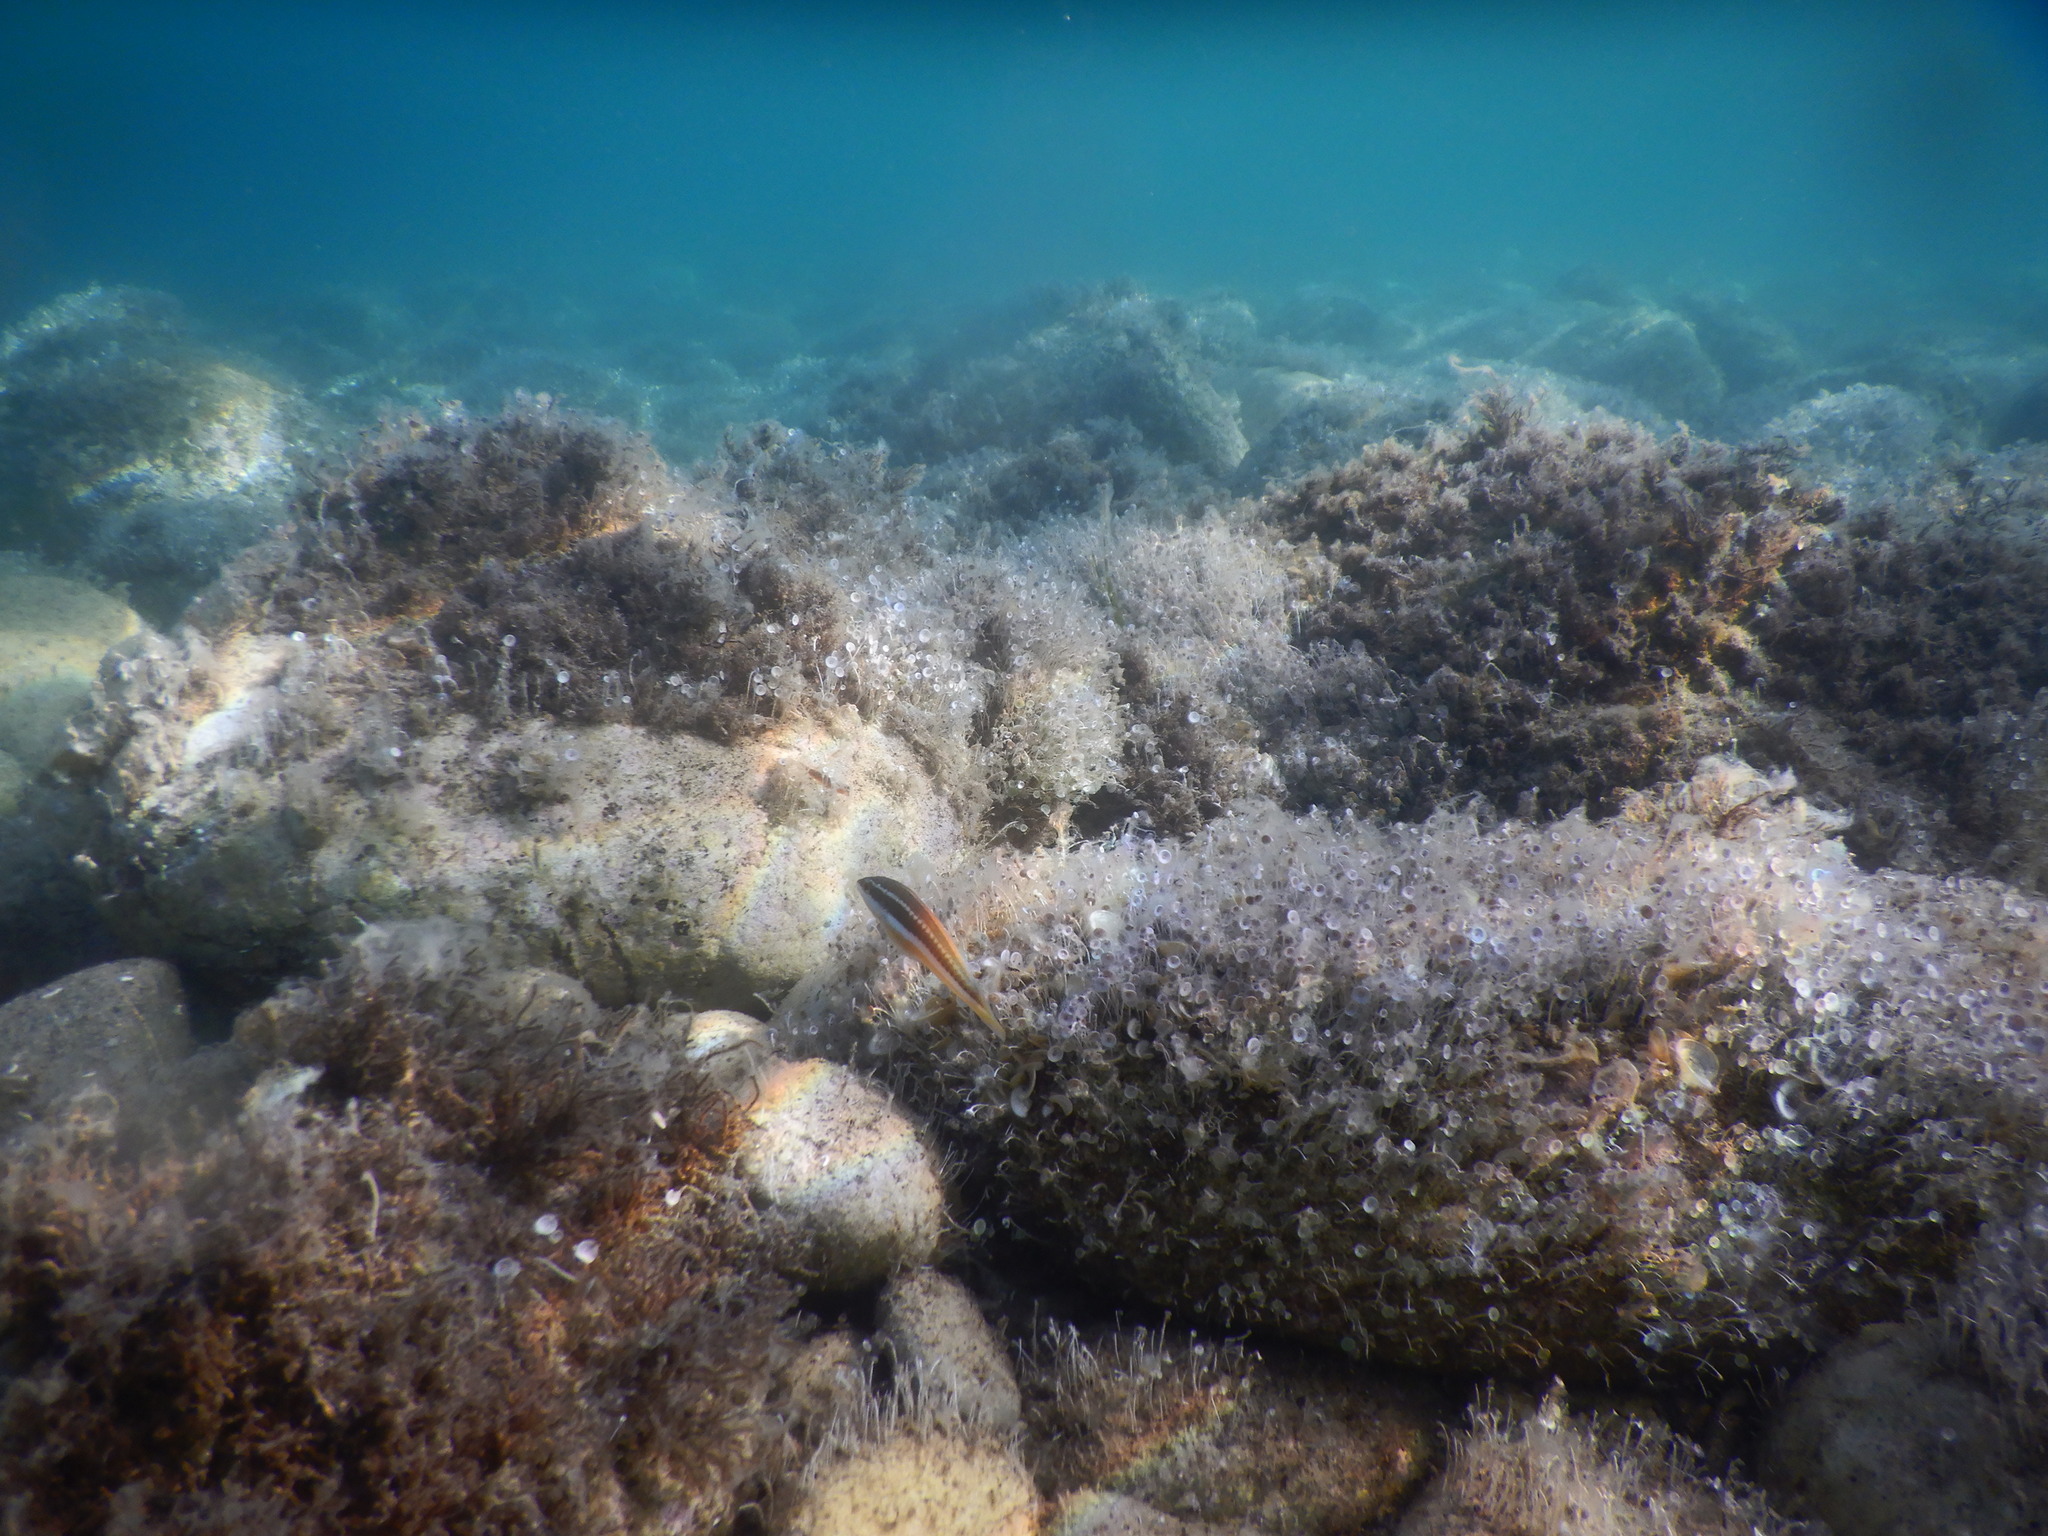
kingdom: Animalia
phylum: Chordata
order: Perciformes
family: Labridae
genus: Coris
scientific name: Coris julis
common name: Rainbow wrasse
